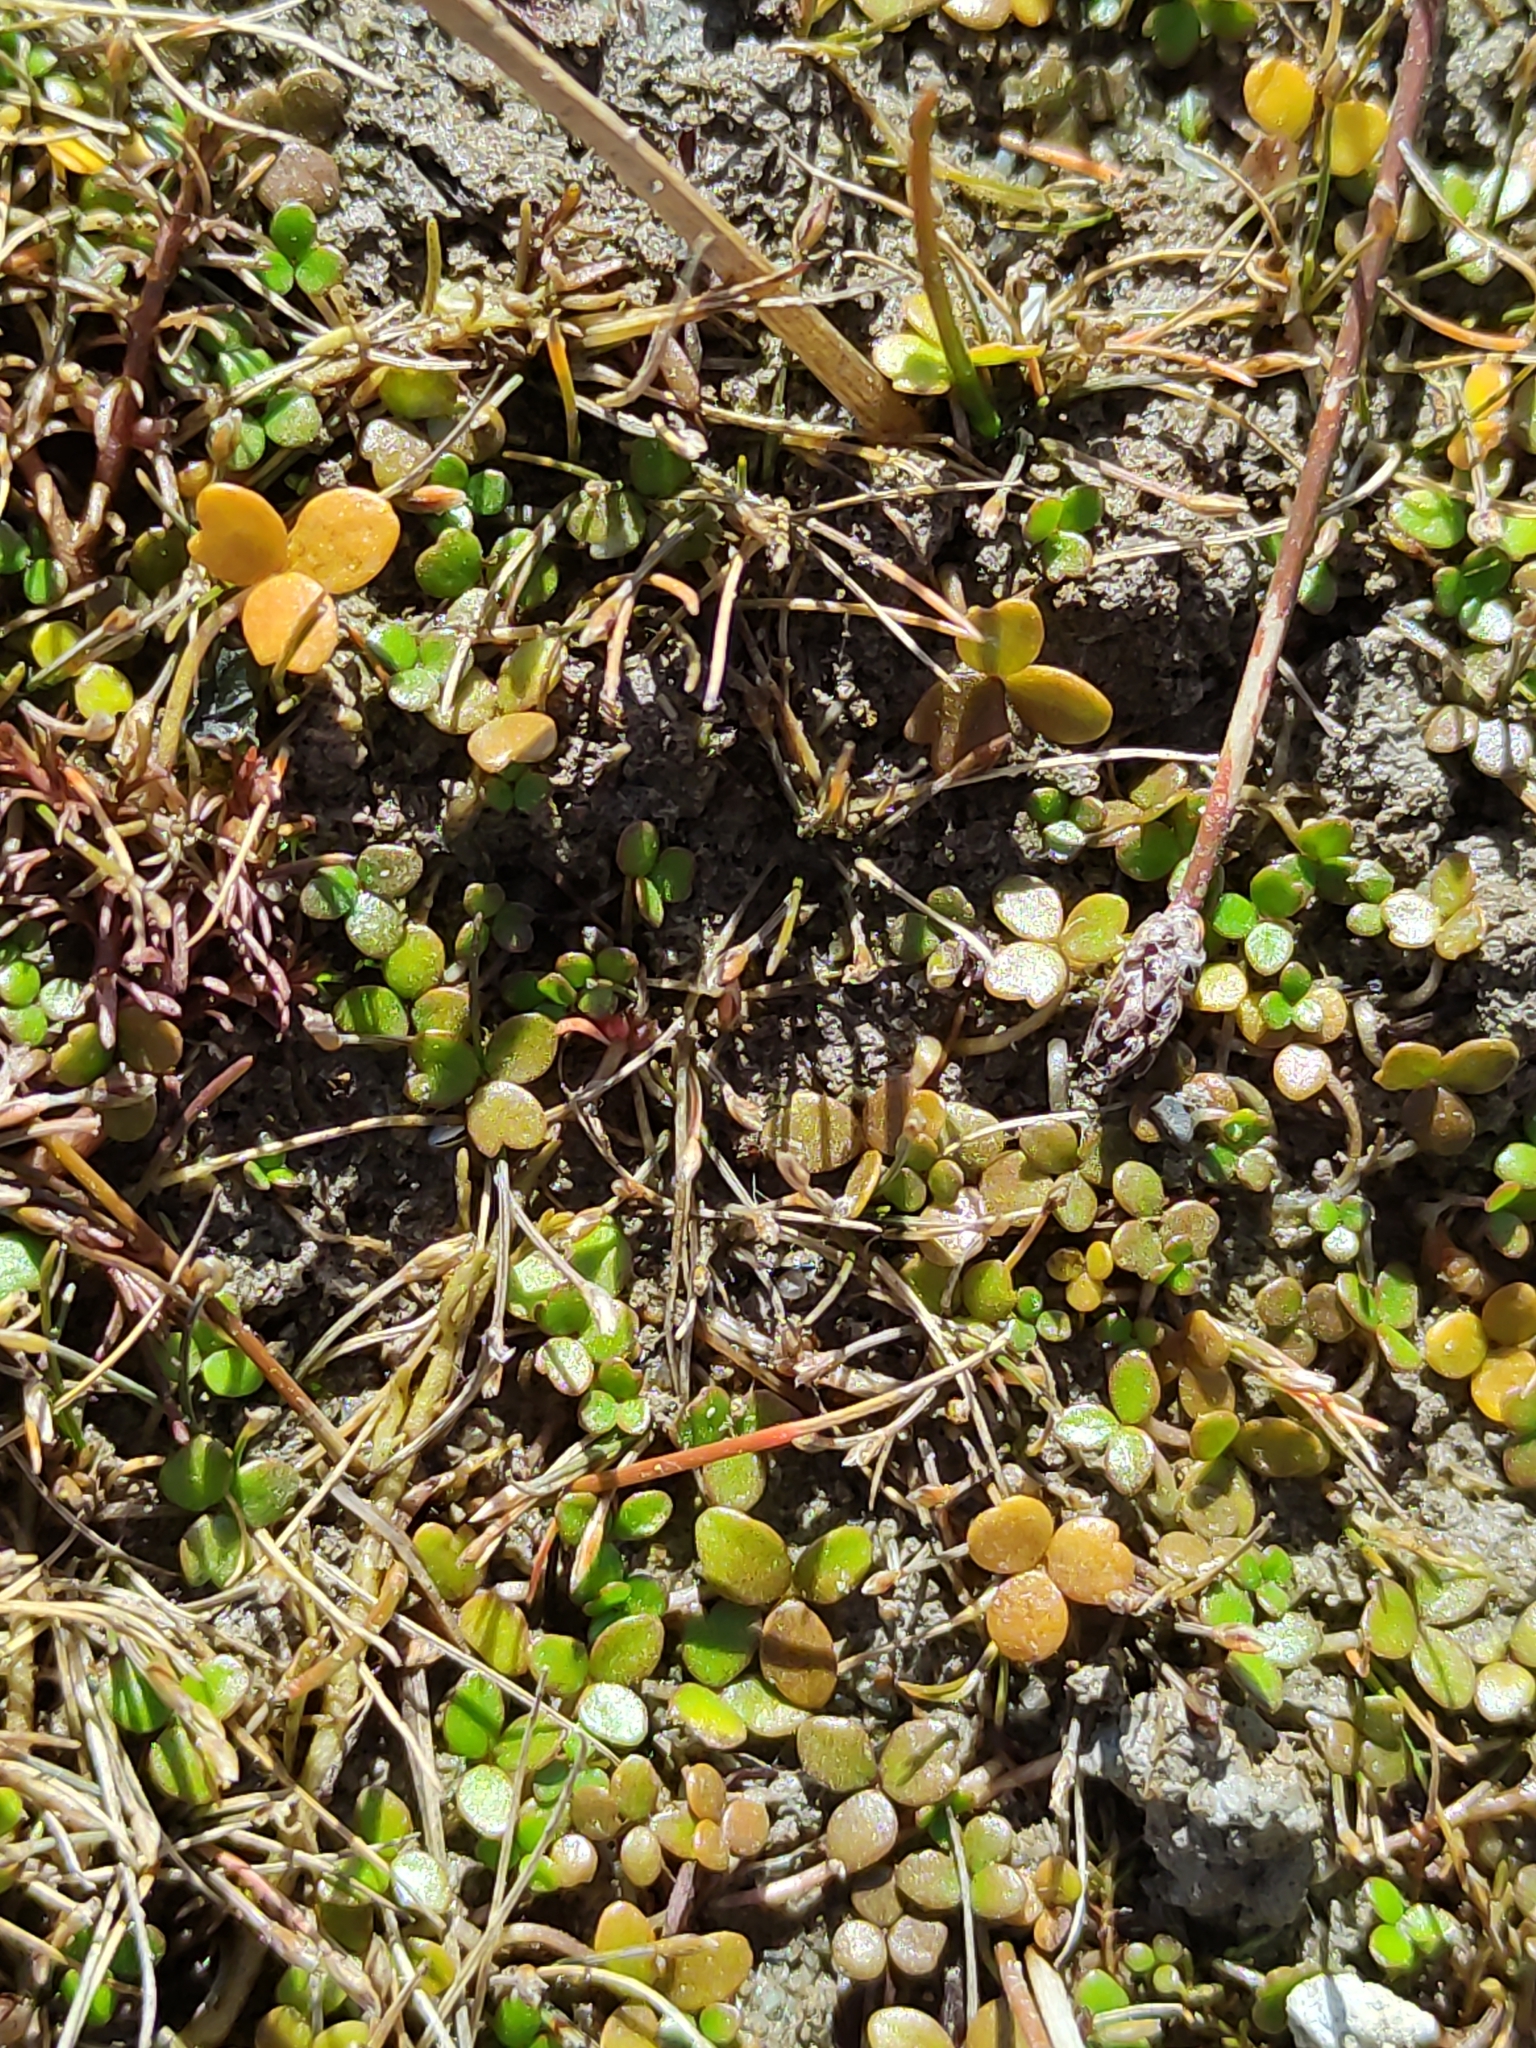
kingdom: Plantae
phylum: Tracheophyta
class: Magnoliopsida
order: Apiales
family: Araliaceae
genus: Hydrocotyle
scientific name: Hydrocotyle hydrophila
